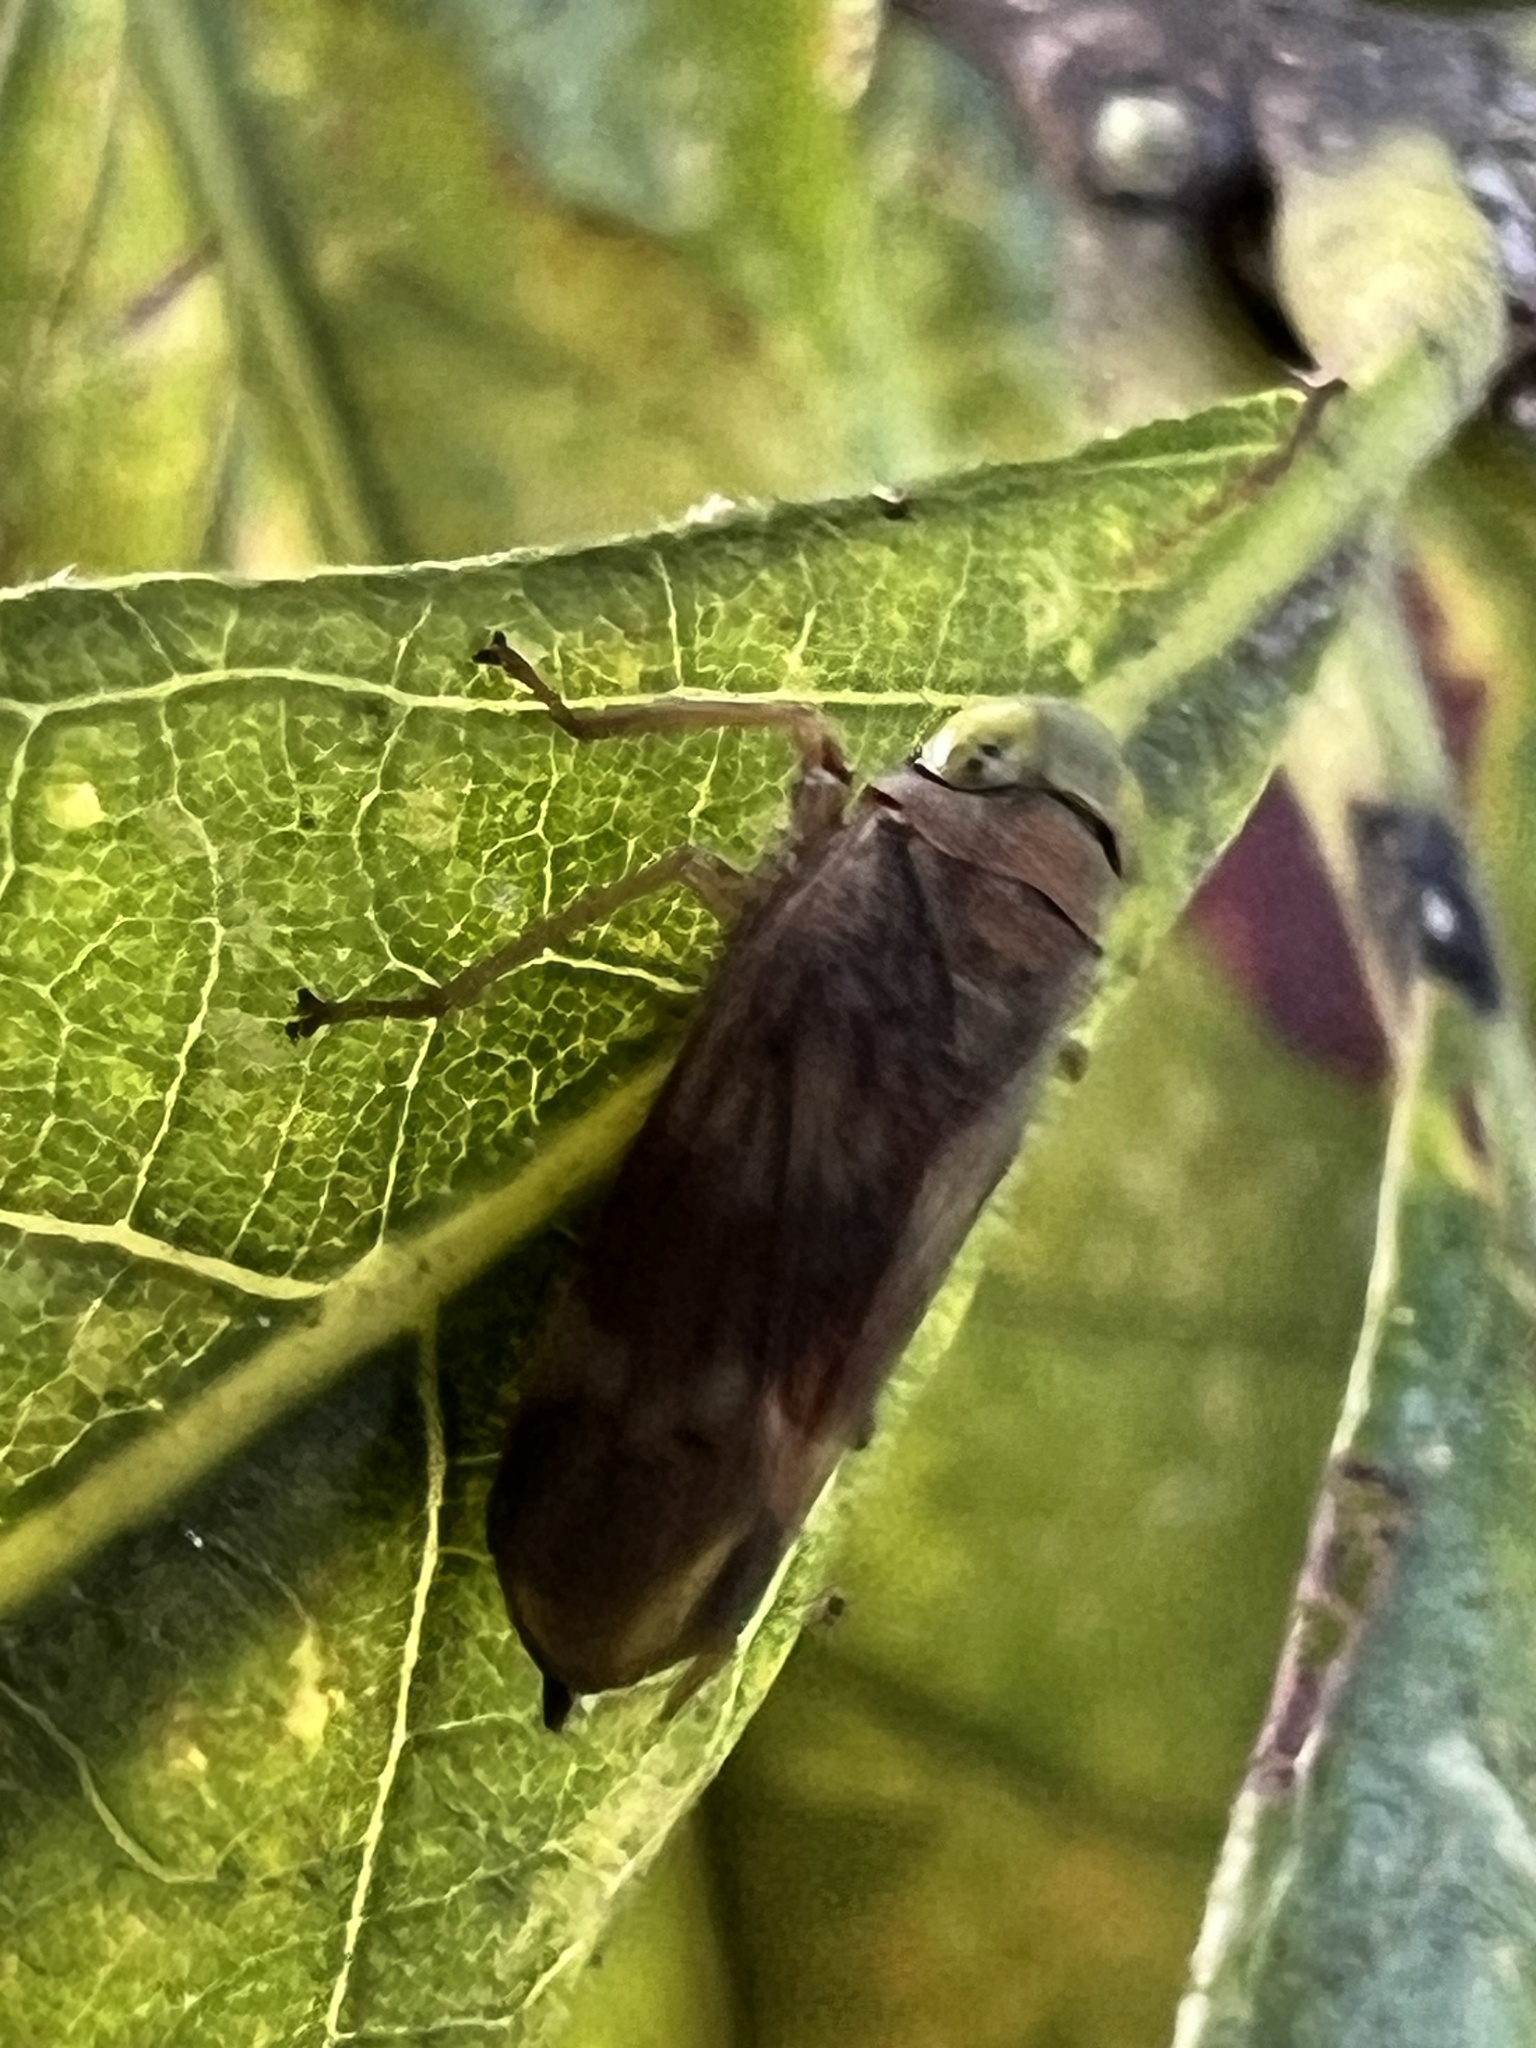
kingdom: Animalia
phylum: Arthropoda
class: Insecta
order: Hemiptera
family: Cicadellidae
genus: Jikradia
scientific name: Jikradia olitoria
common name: Coppery leafhopper
